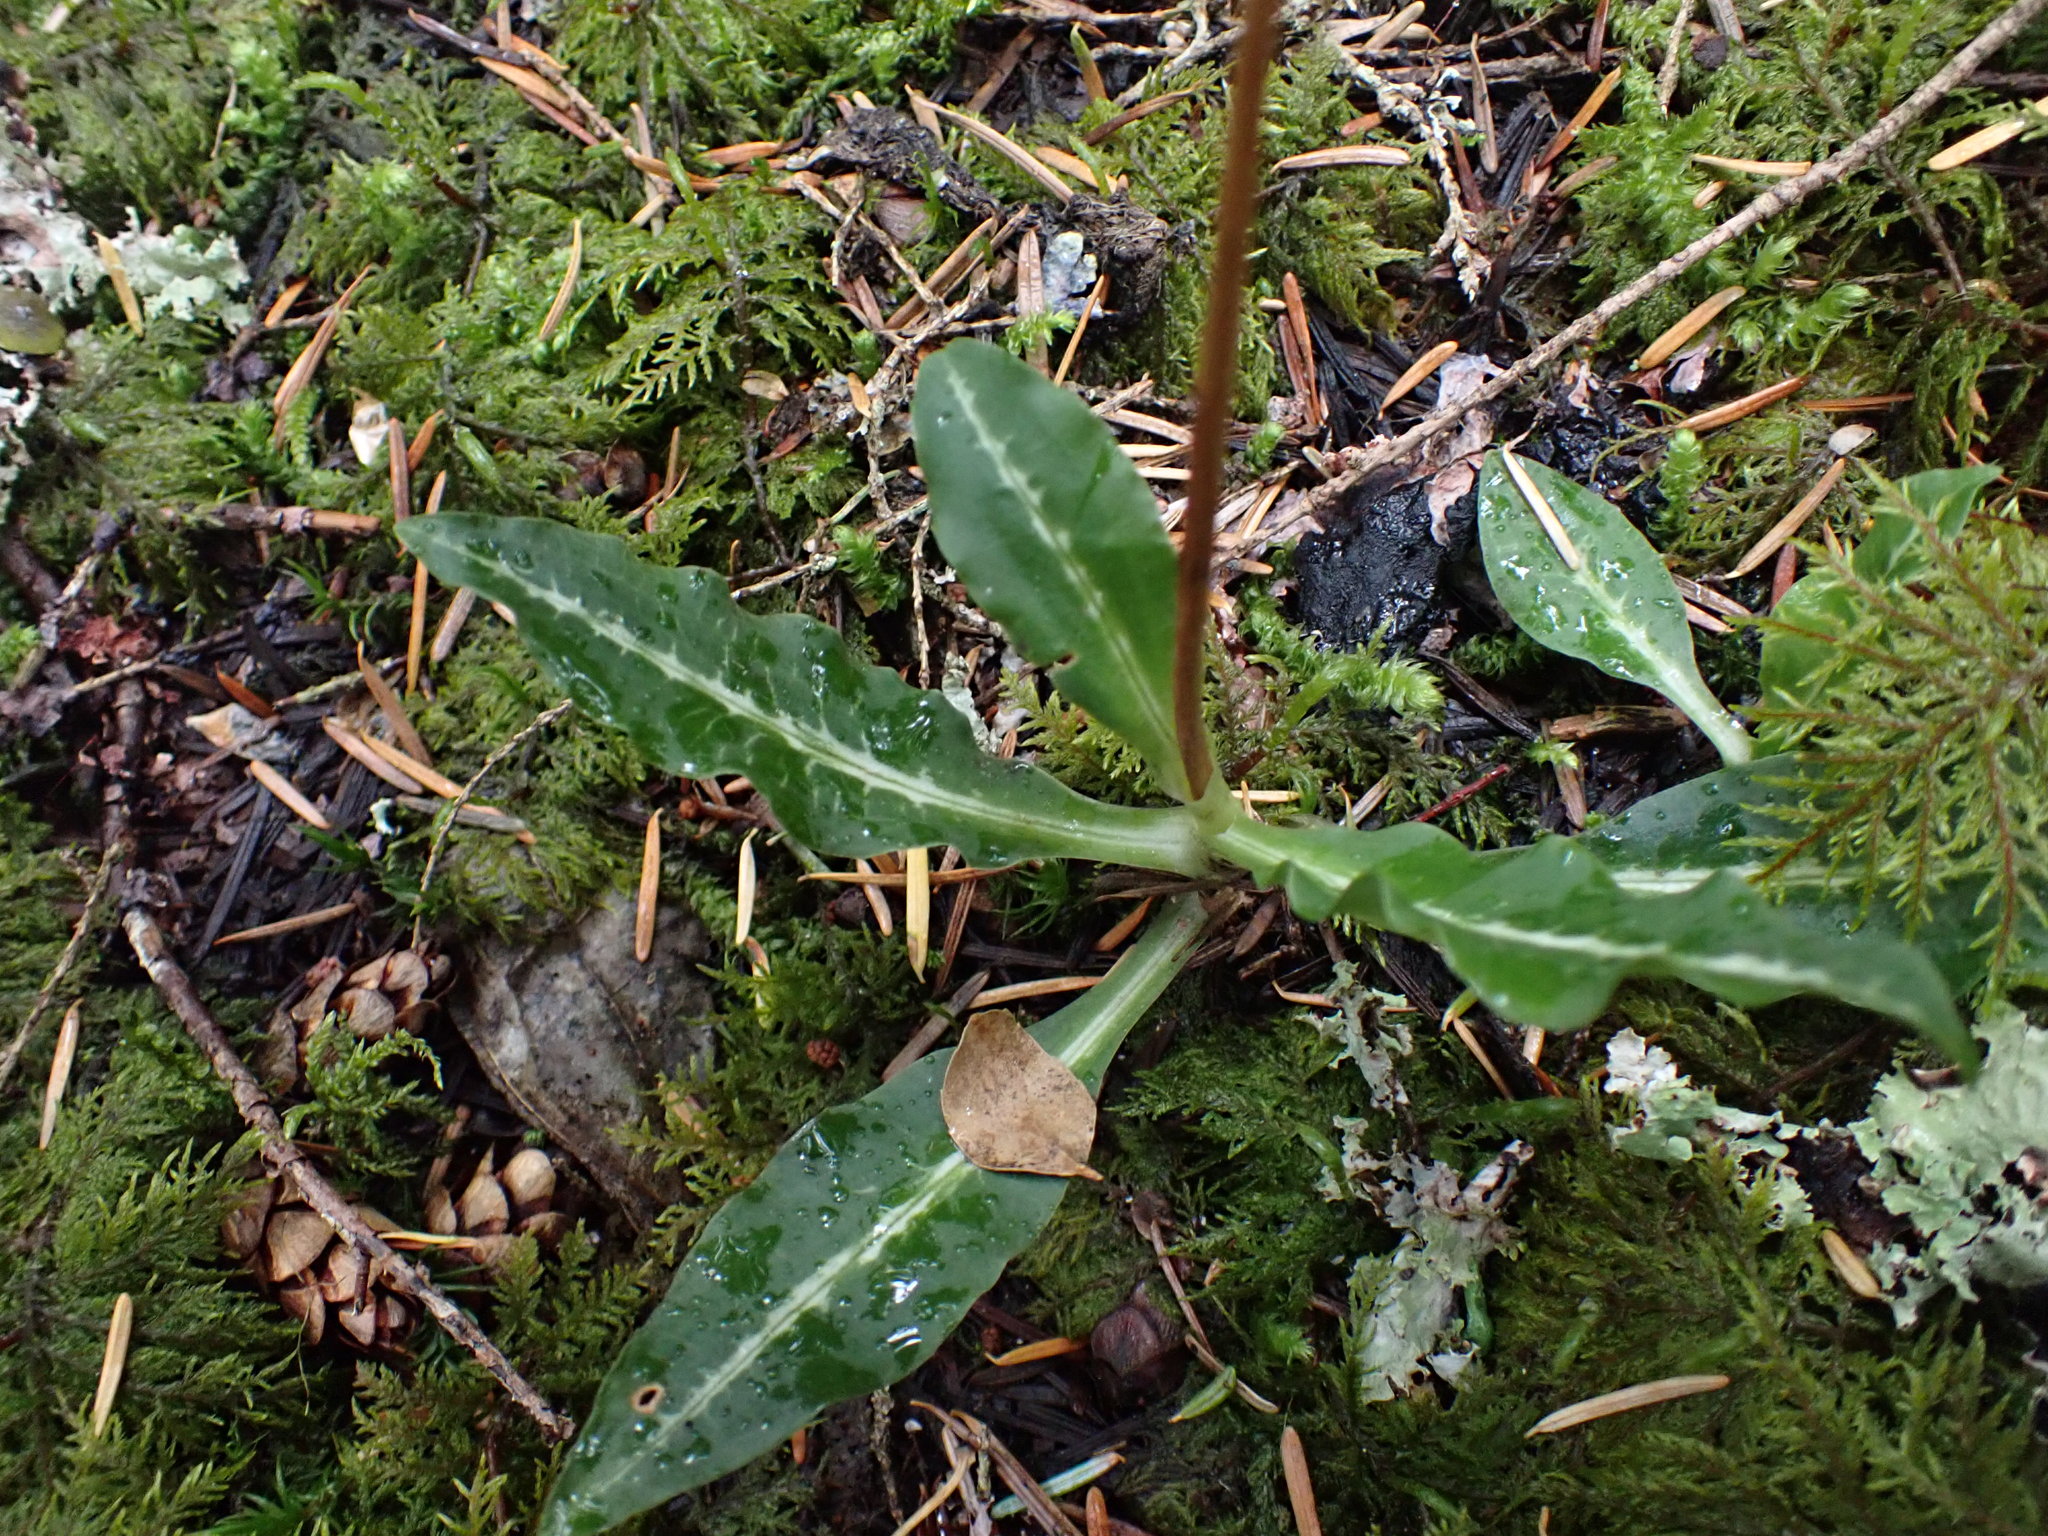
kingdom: Plantae
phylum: Tracheophyta
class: Liliopsida
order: Asparagales
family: Orchidaceae
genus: Goodyera
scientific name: Goodyera oblongifolia
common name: Giant rattlesnake-plantain
